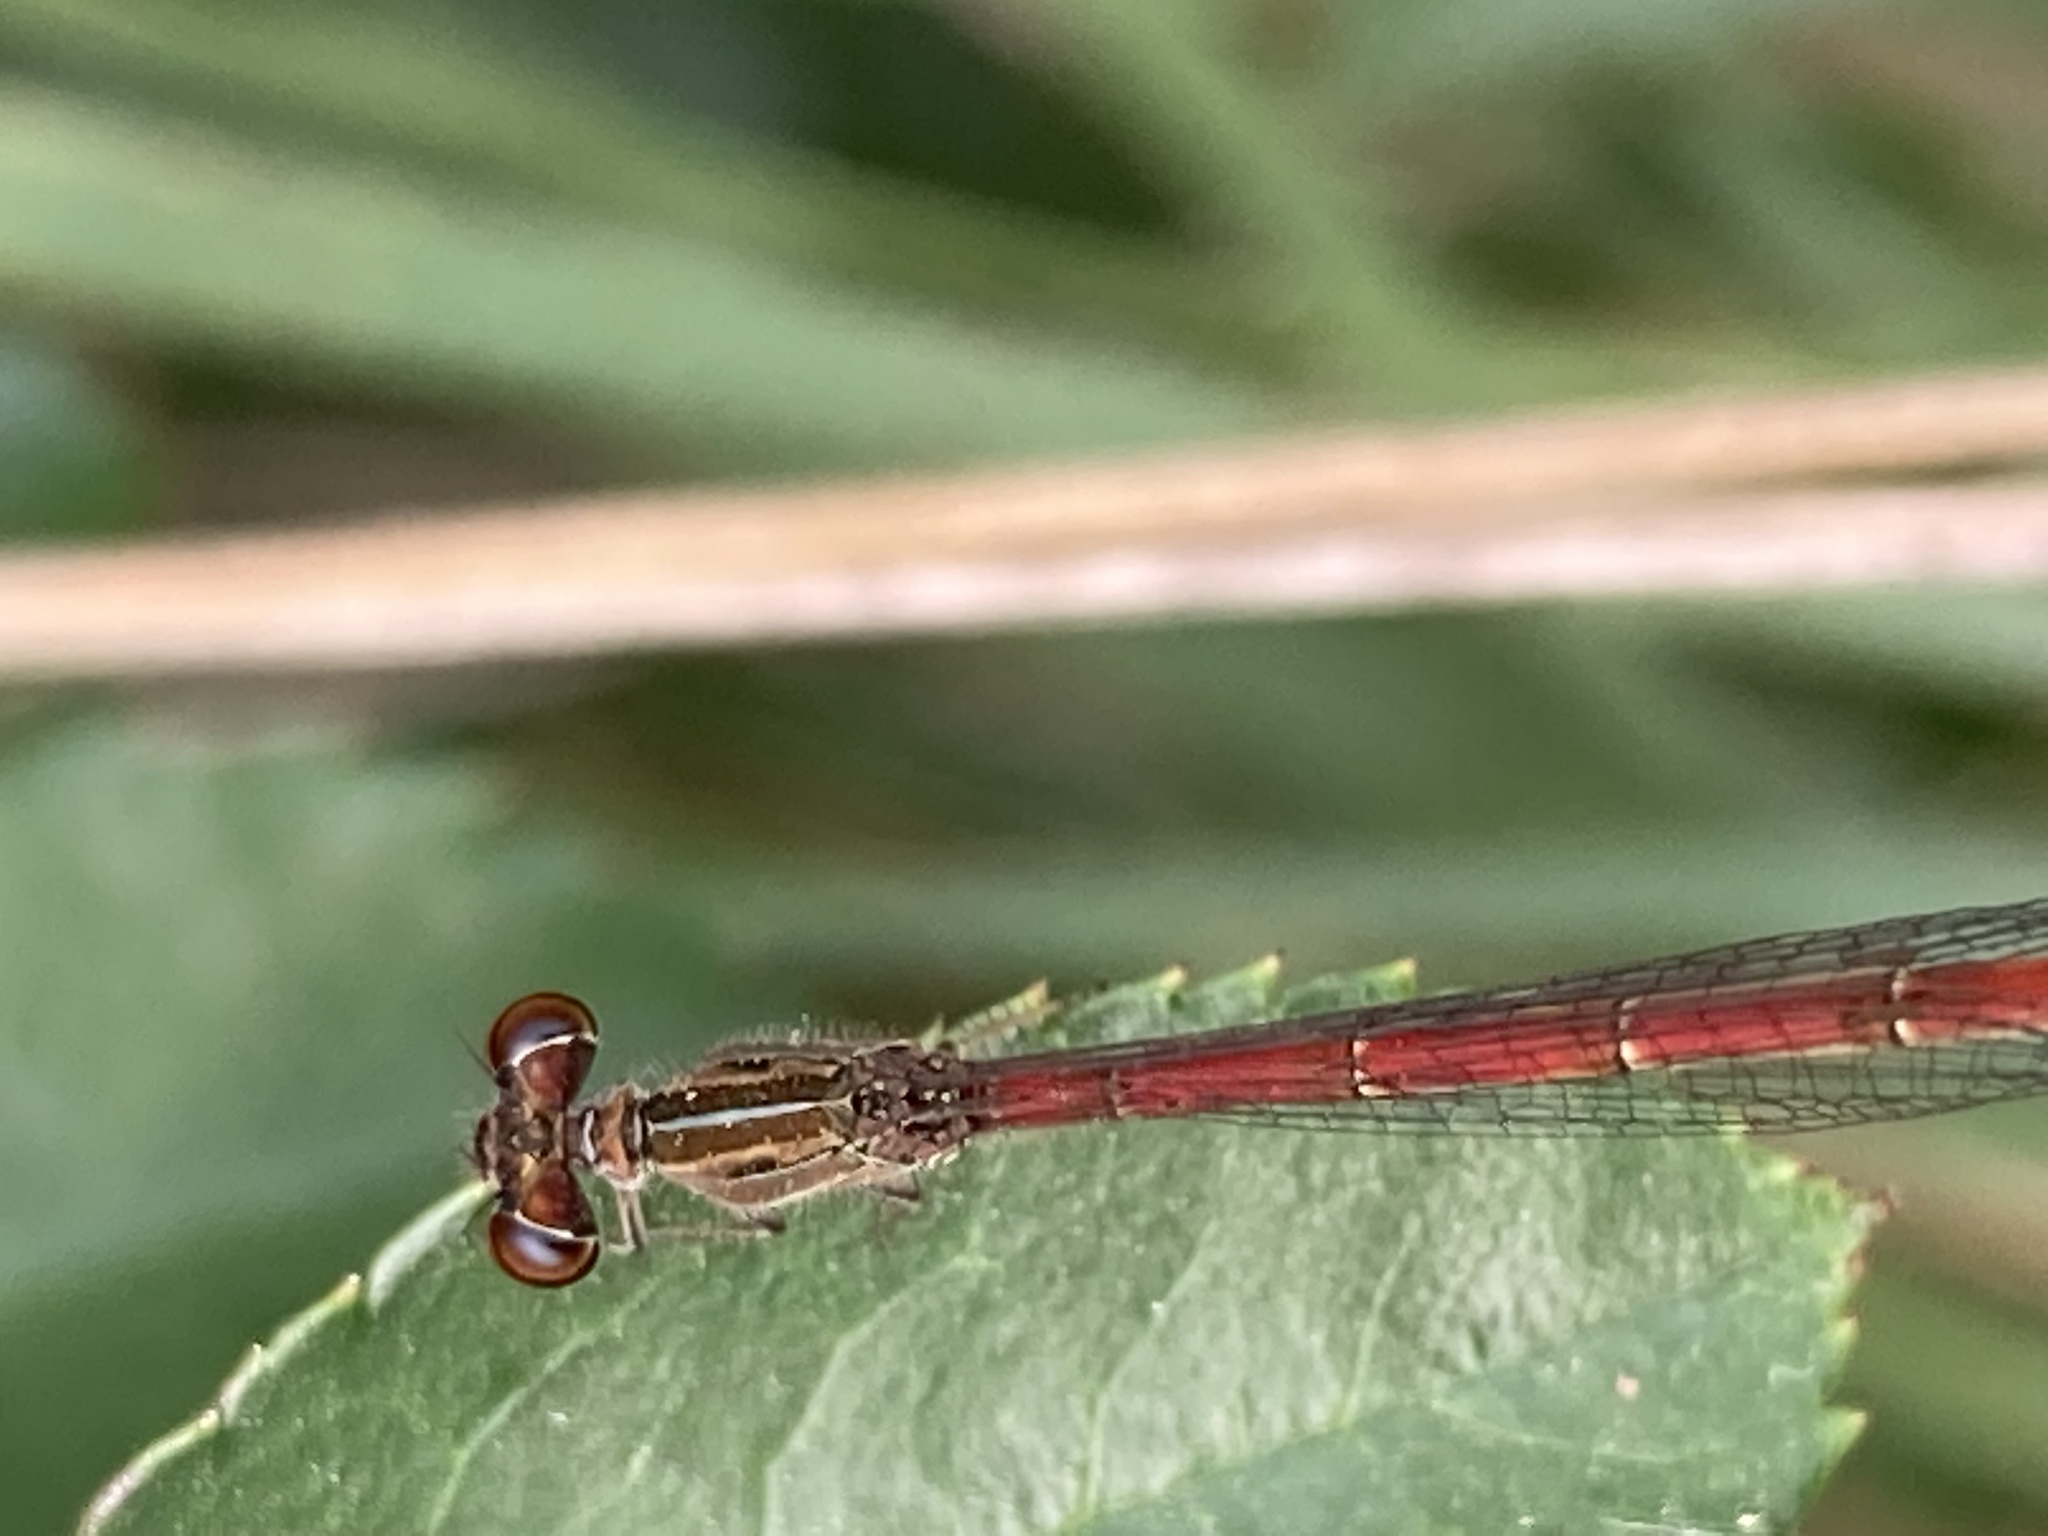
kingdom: Animalia
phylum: Arthropoda
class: Insecta
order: Odonata
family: Coenagrionidae
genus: Telebasis
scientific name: Telebasis willinki
